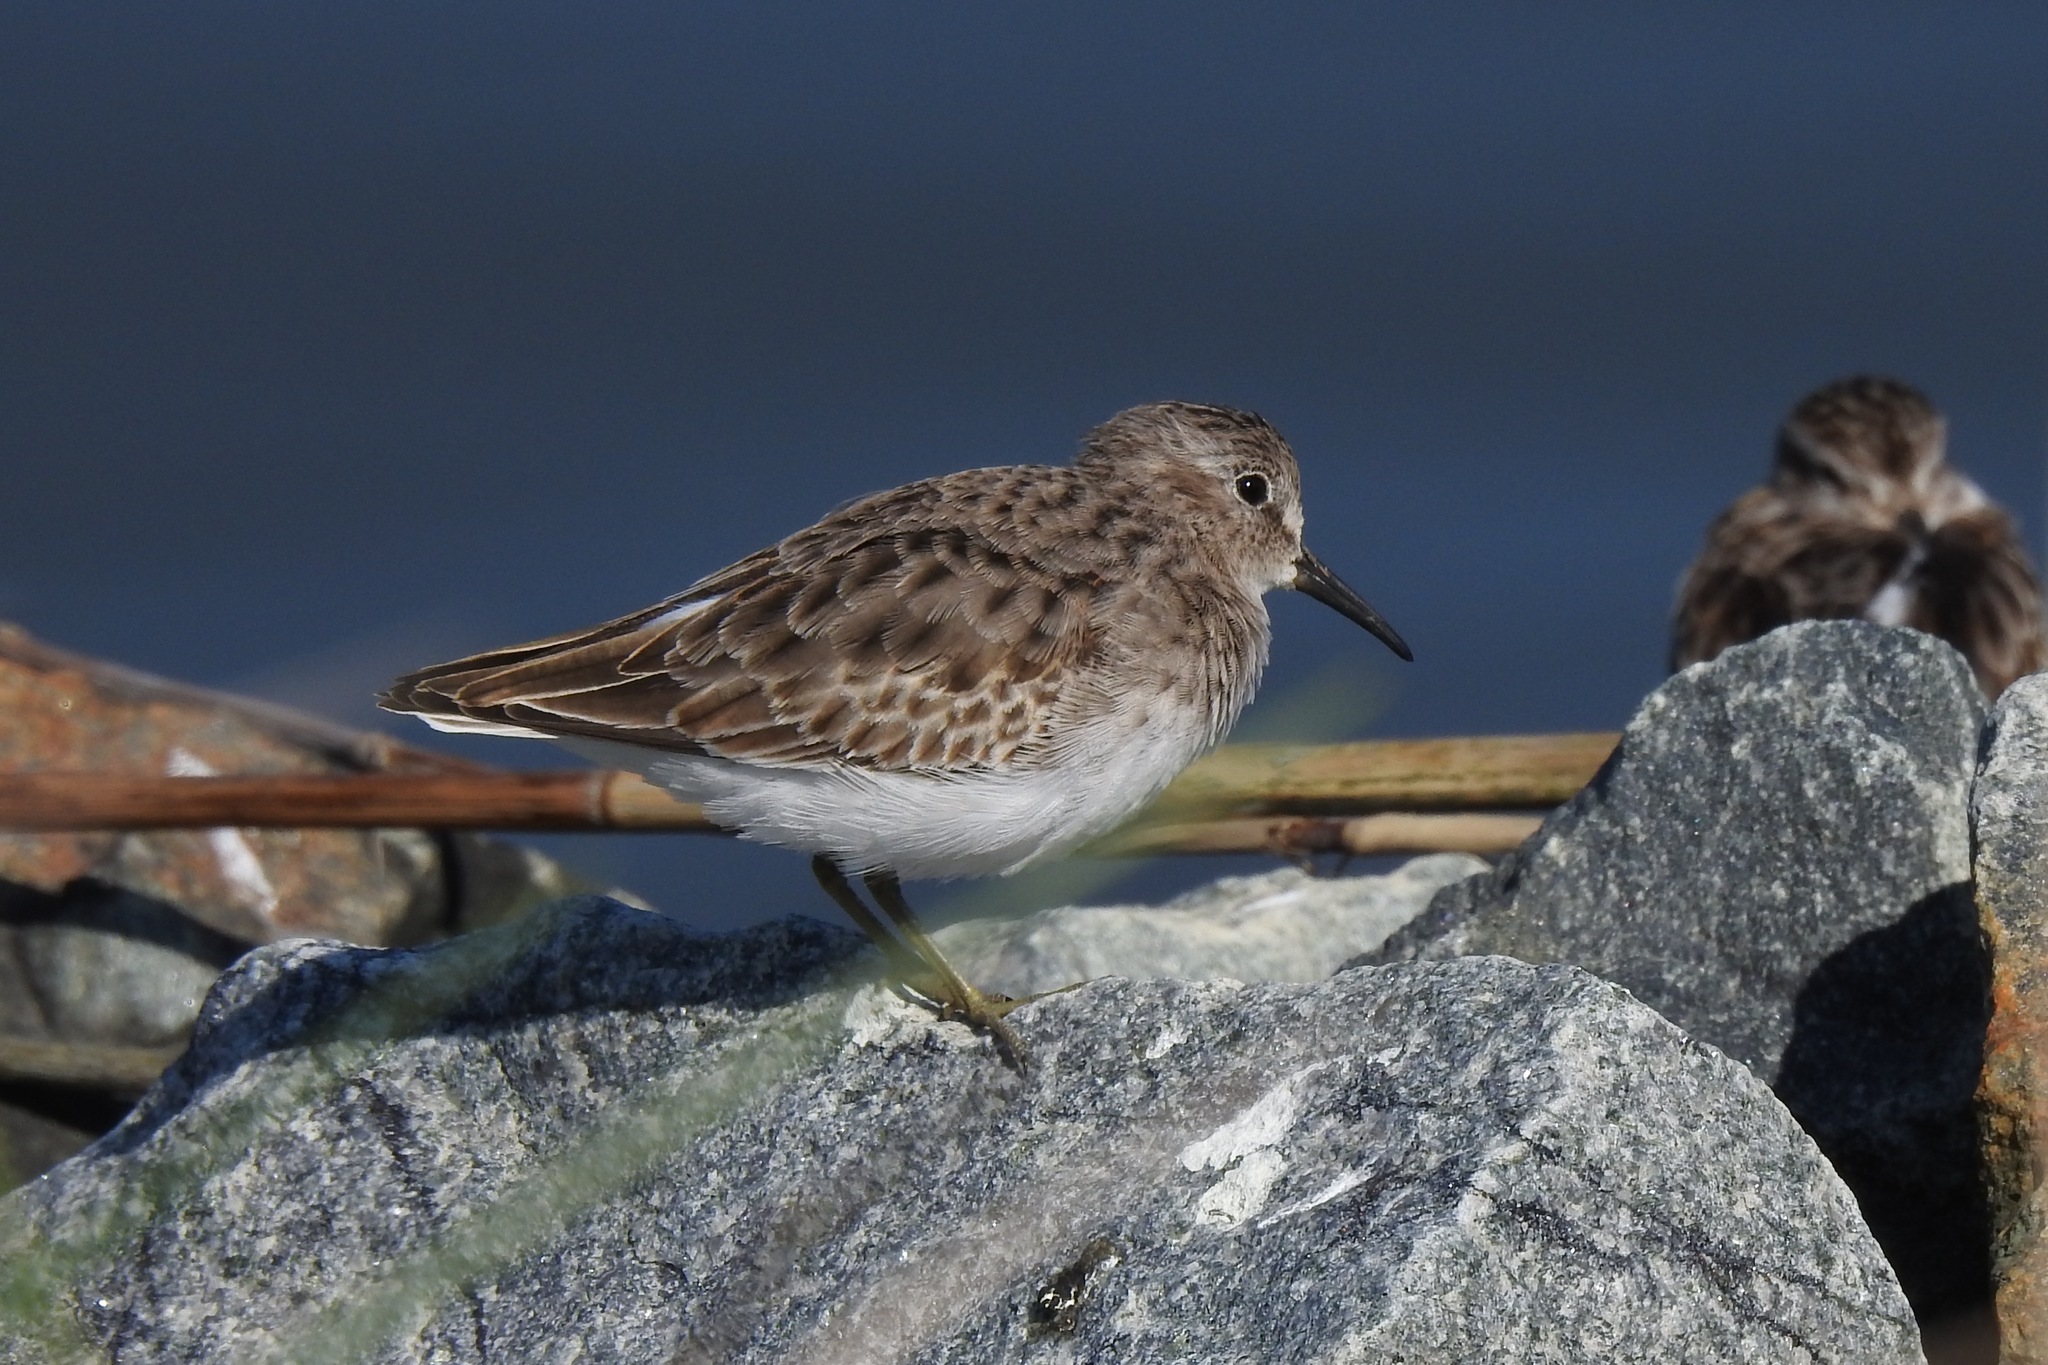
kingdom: Animalia
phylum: Chordata
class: Aves
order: Charadriiformes
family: Scolopacidae
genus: Calidris
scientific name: Calidris pusilla
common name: Semipalmated sandpiper
